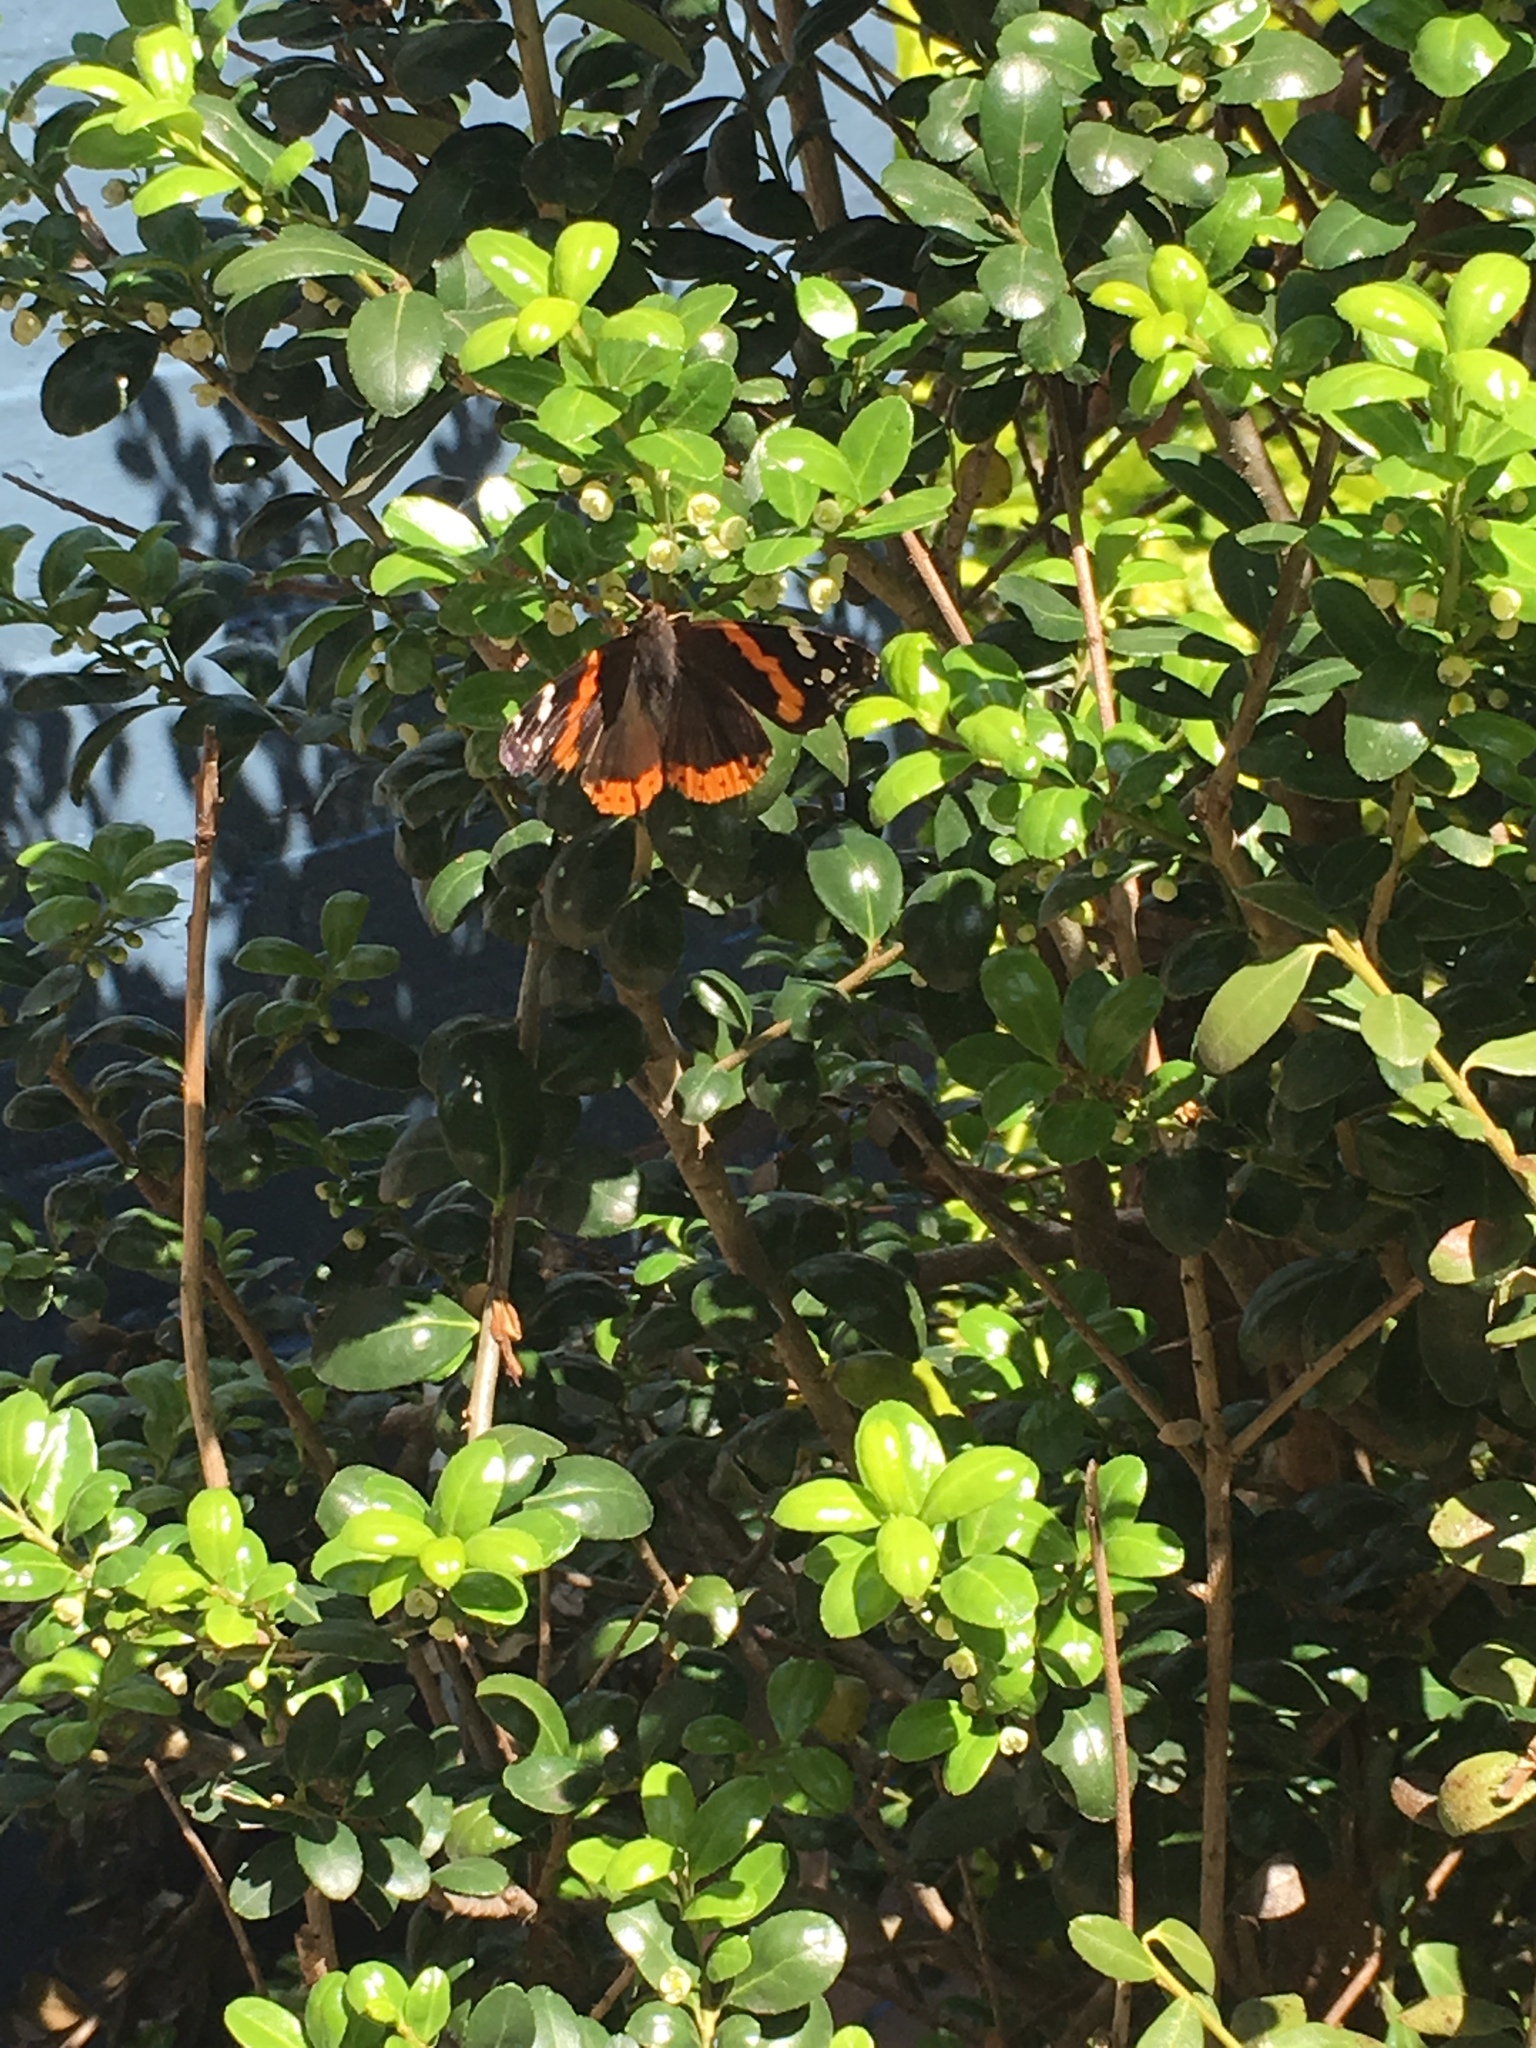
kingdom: Animalia
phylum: Arthropoda
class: Insecta
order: Lepidoptera
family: Nymphalidae
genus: Vanessa
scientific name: Vanessa atalanta
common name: Red admiral
